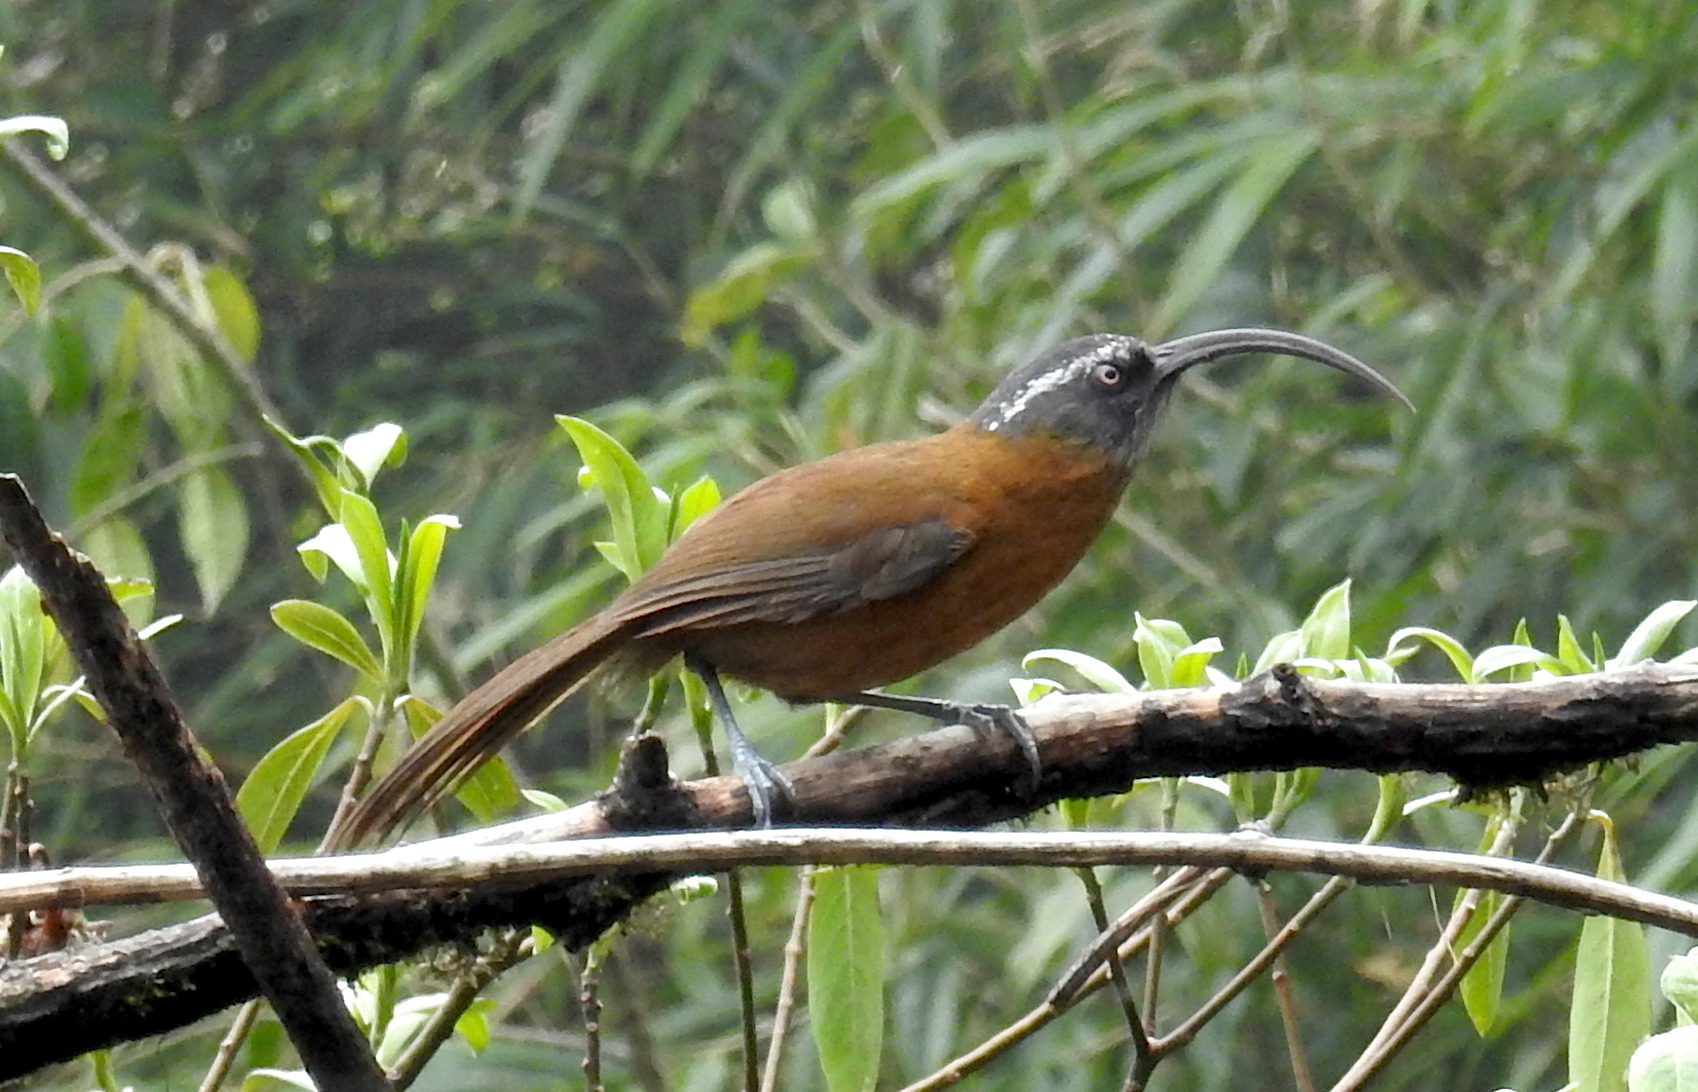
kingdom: Animalia
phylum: Chordata
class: Aves
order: Passeriformes
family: Timaliidae
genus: Pomatorhinus
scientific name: Pomatorhinus superciliaris
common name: Slender-billed scimitar-babbler
